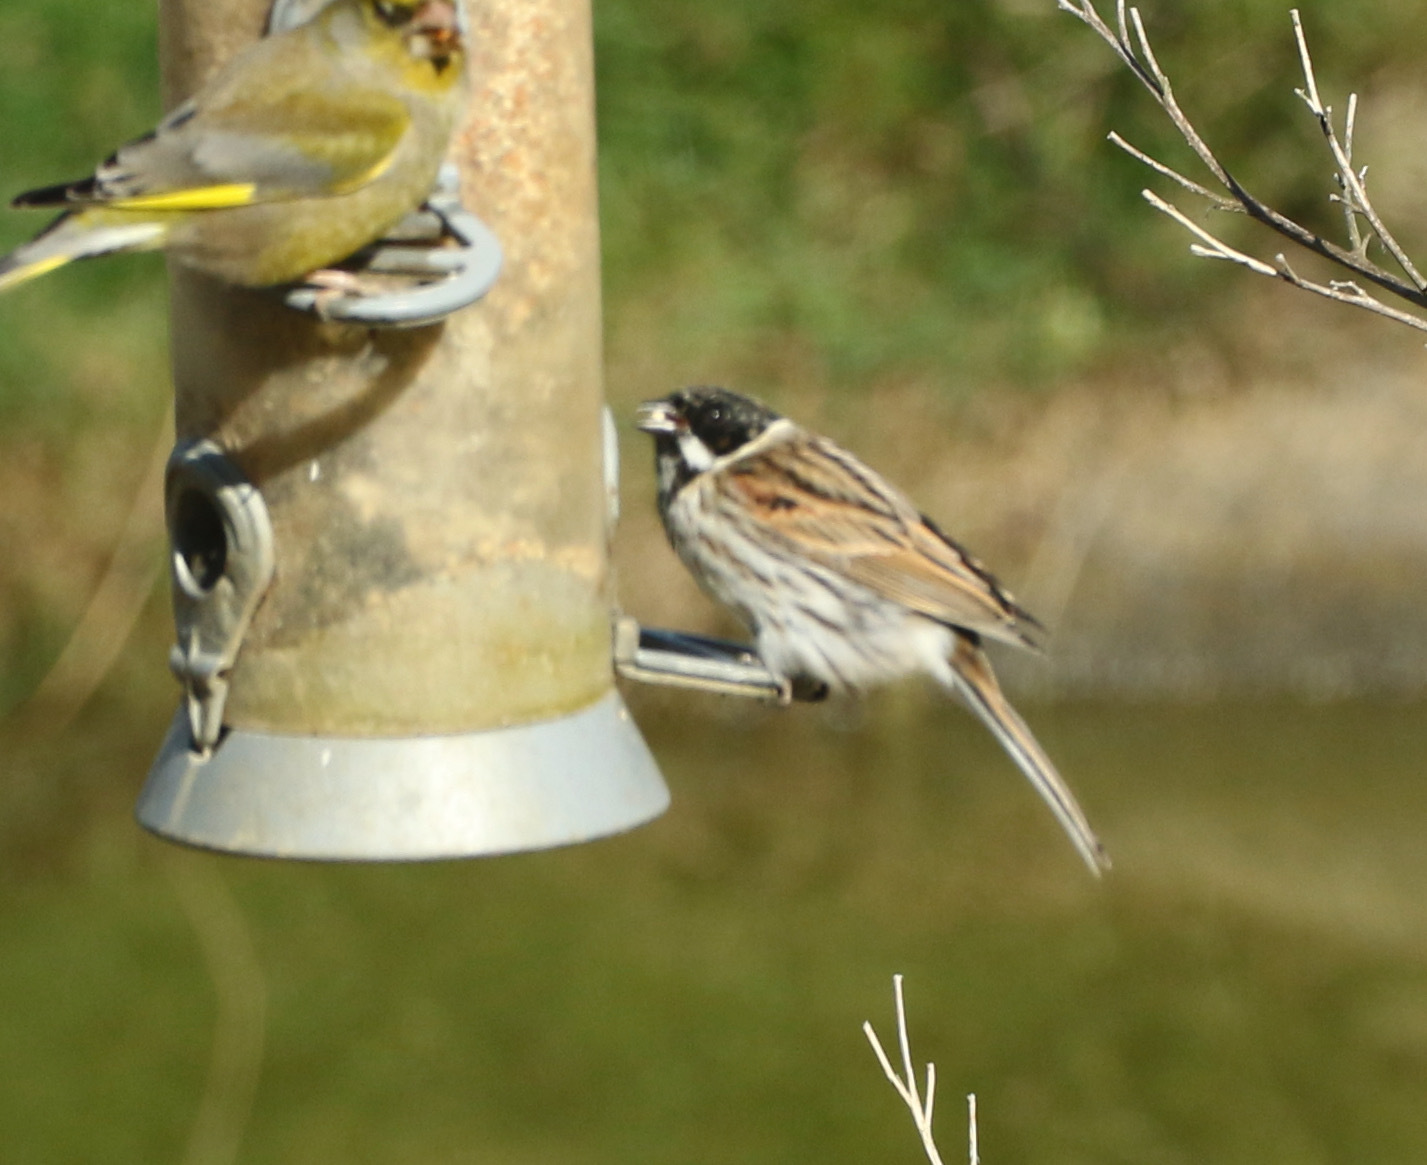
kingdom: Animalia
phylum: Chordata
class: Aves
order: Passeriformes
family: Emberizidae
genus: Emberiza
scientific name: Emberiza schoeniclus
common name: Reed bunting
